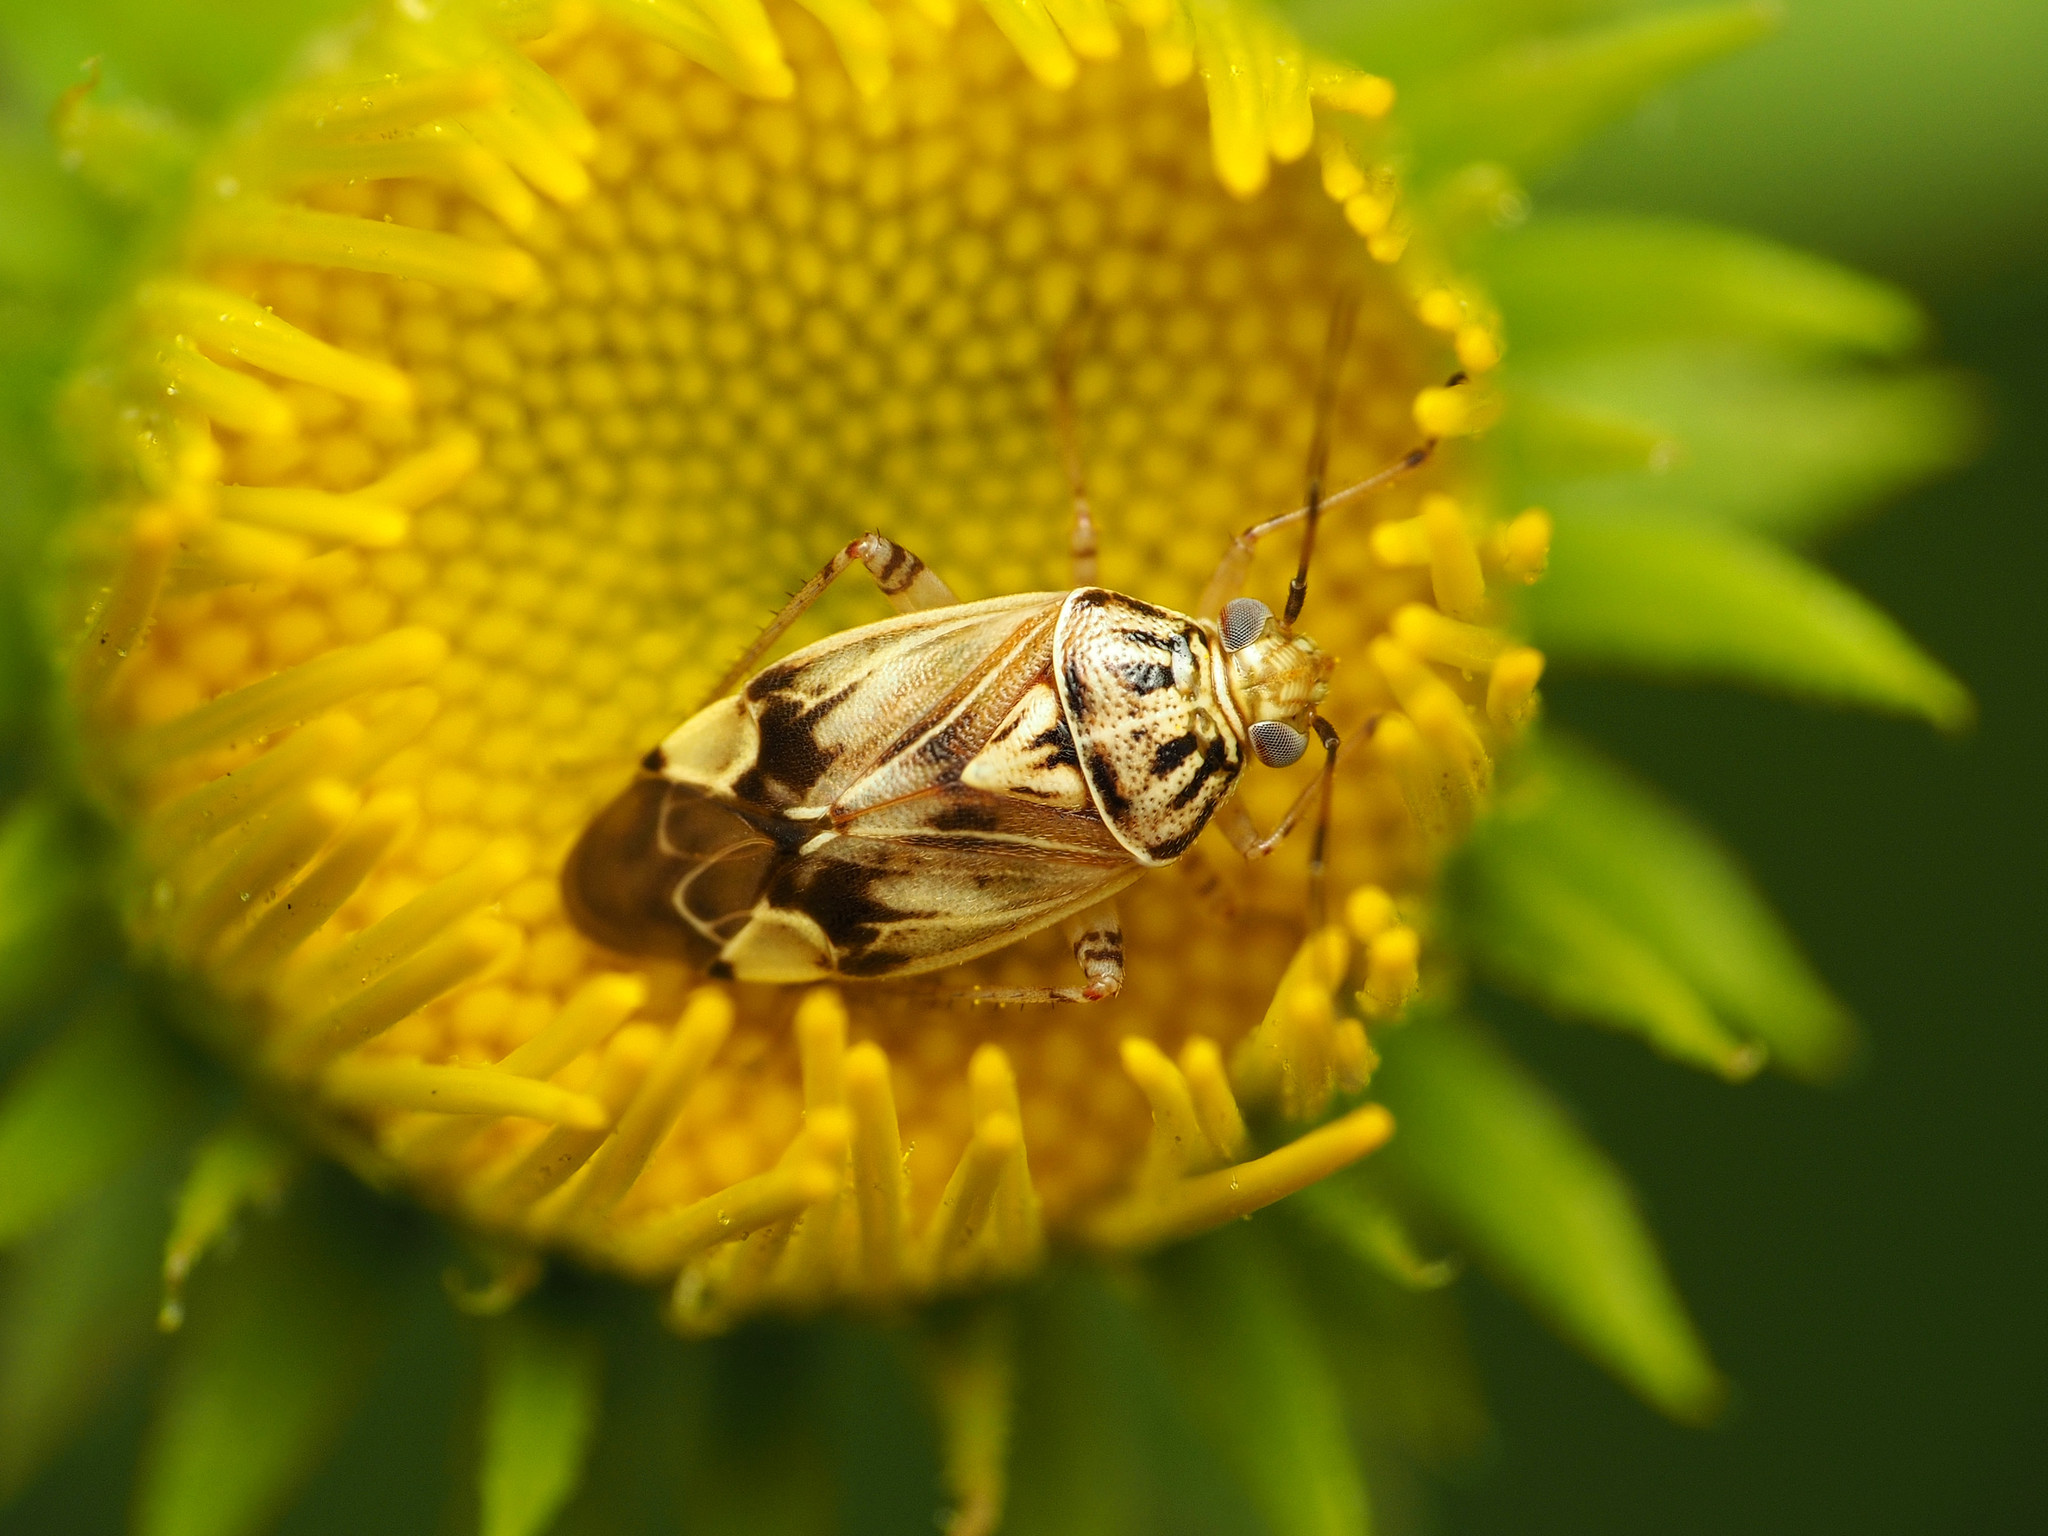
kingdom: Animalia
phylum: Arthropoda
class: Insecta
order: Hemiptera
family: Miridae
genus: Lygus
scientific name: Lygus lineolaris
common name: North american tarnished plant bug
